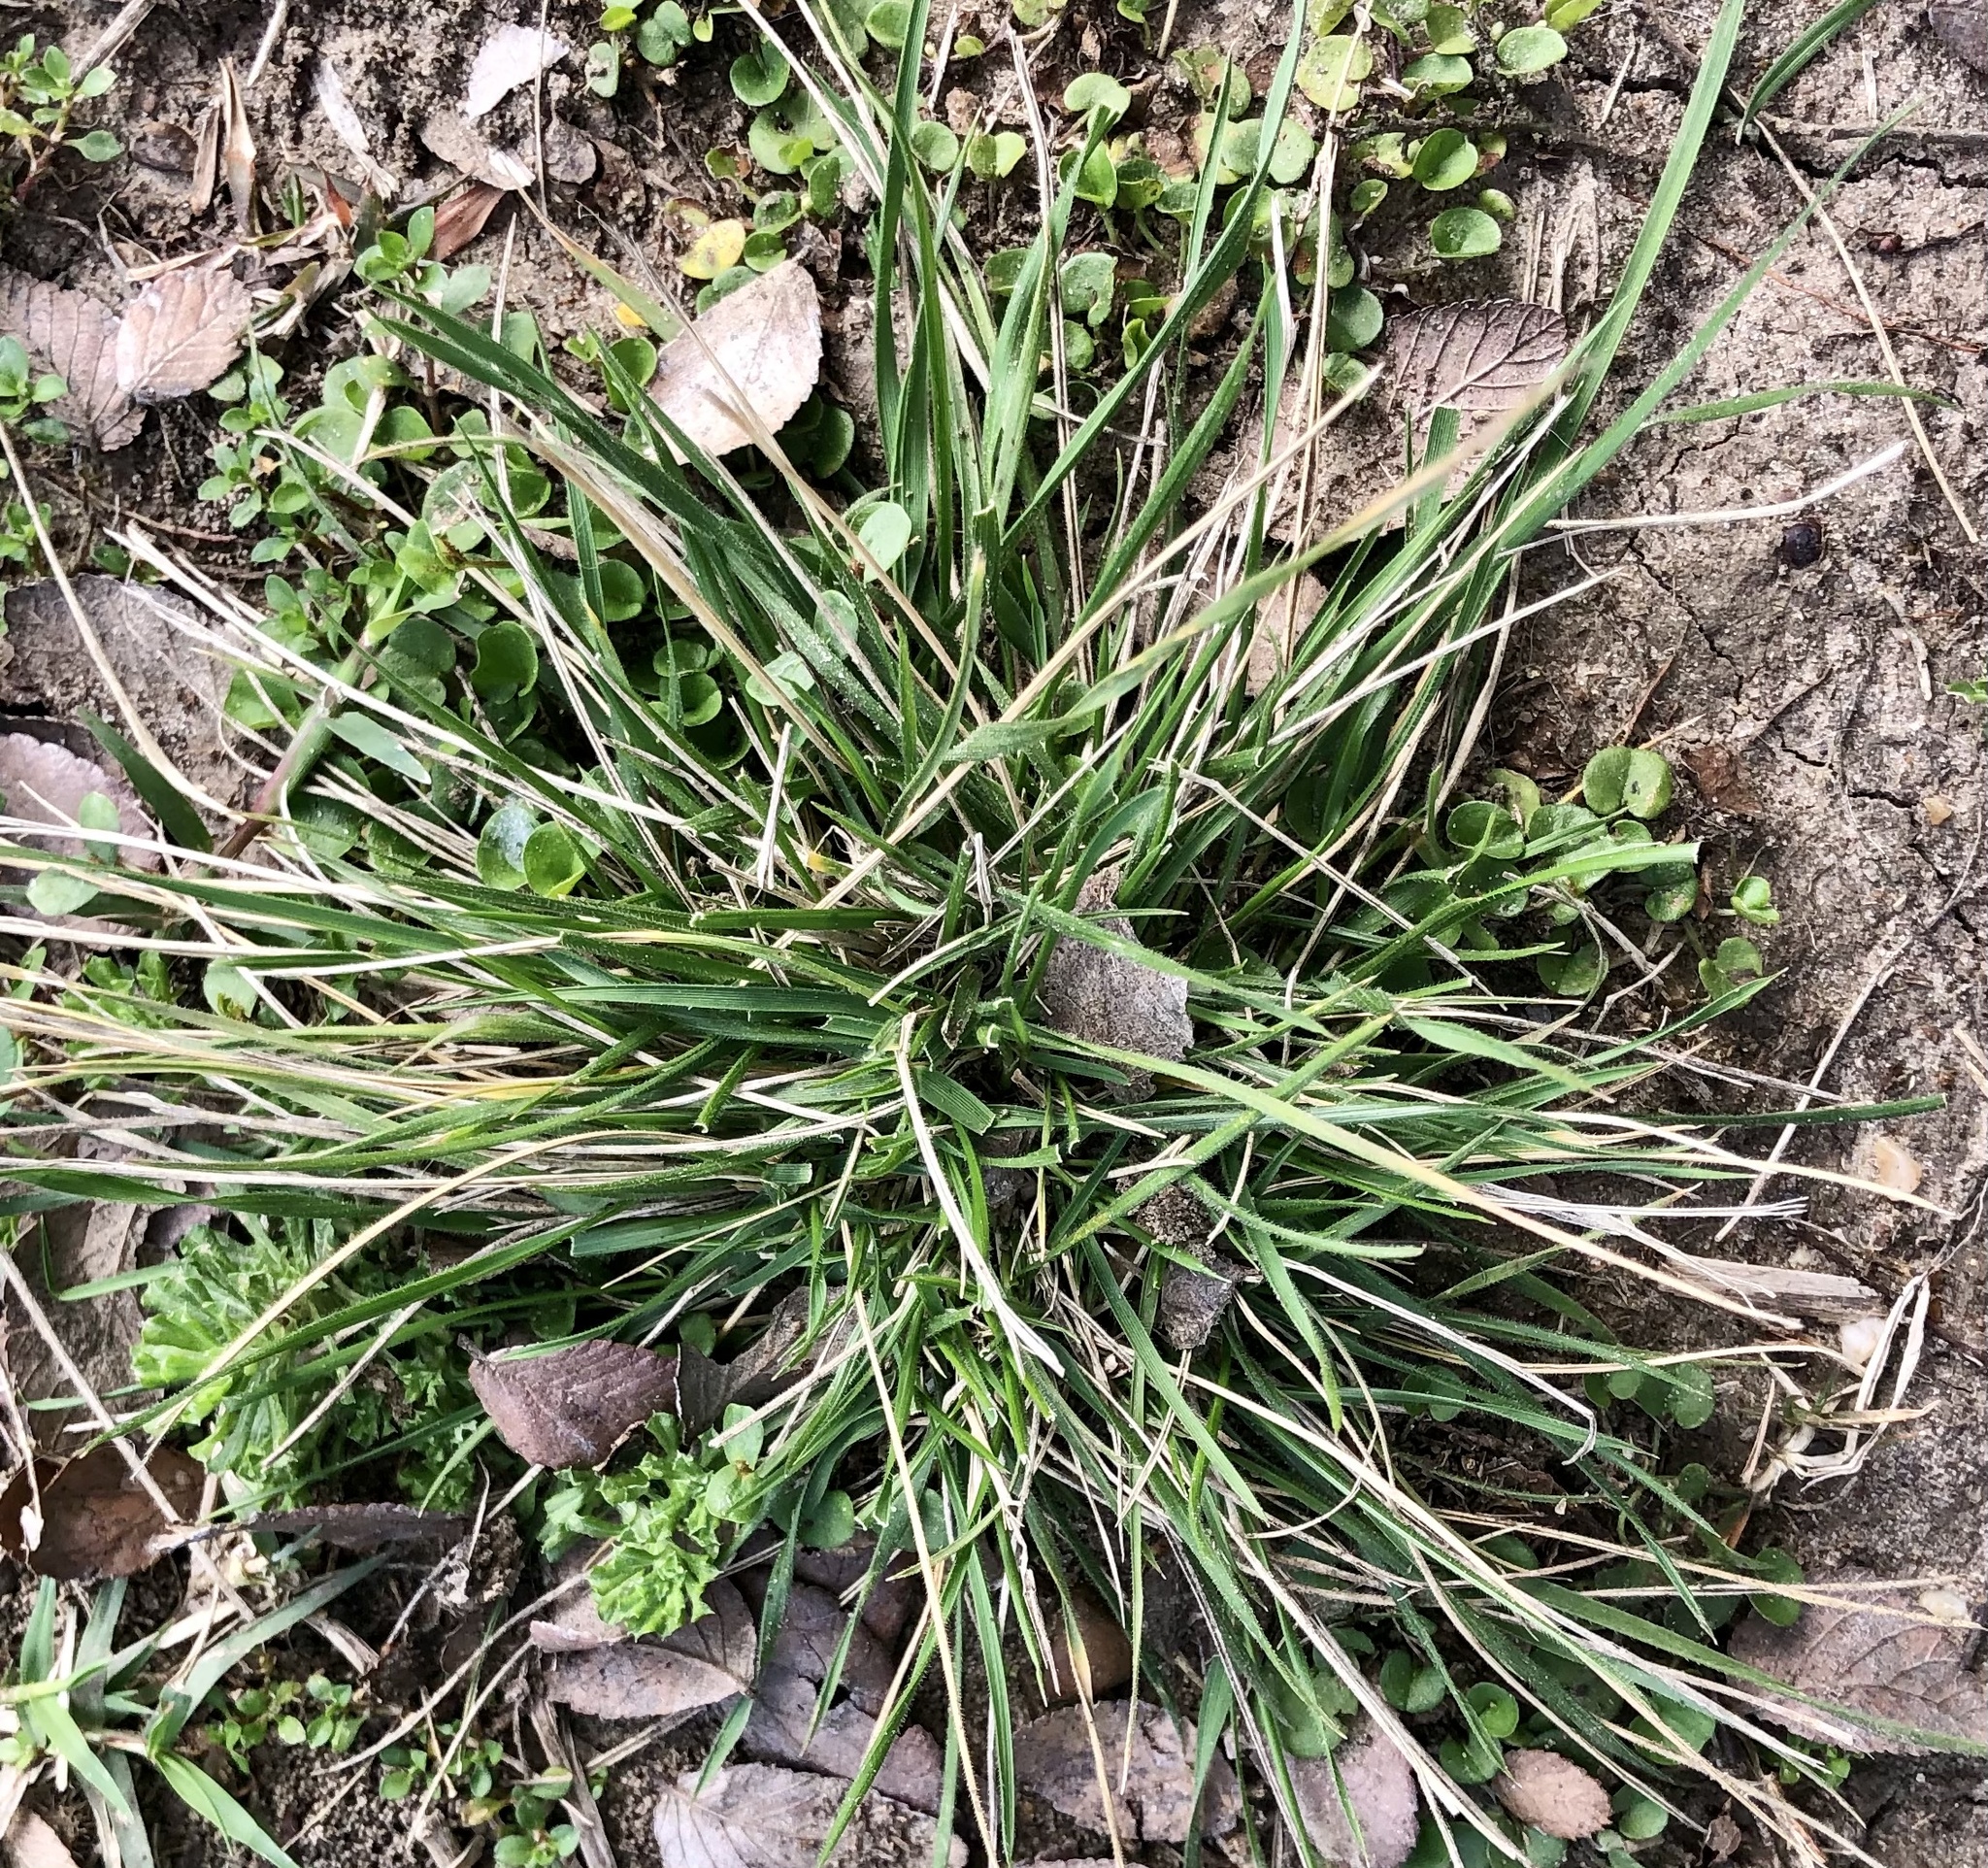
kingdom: Plantae
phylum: Tracheophyta
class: Liliopsida
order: Poales
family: Poaceae
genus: Nassella
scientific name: Nassella leucotricha
